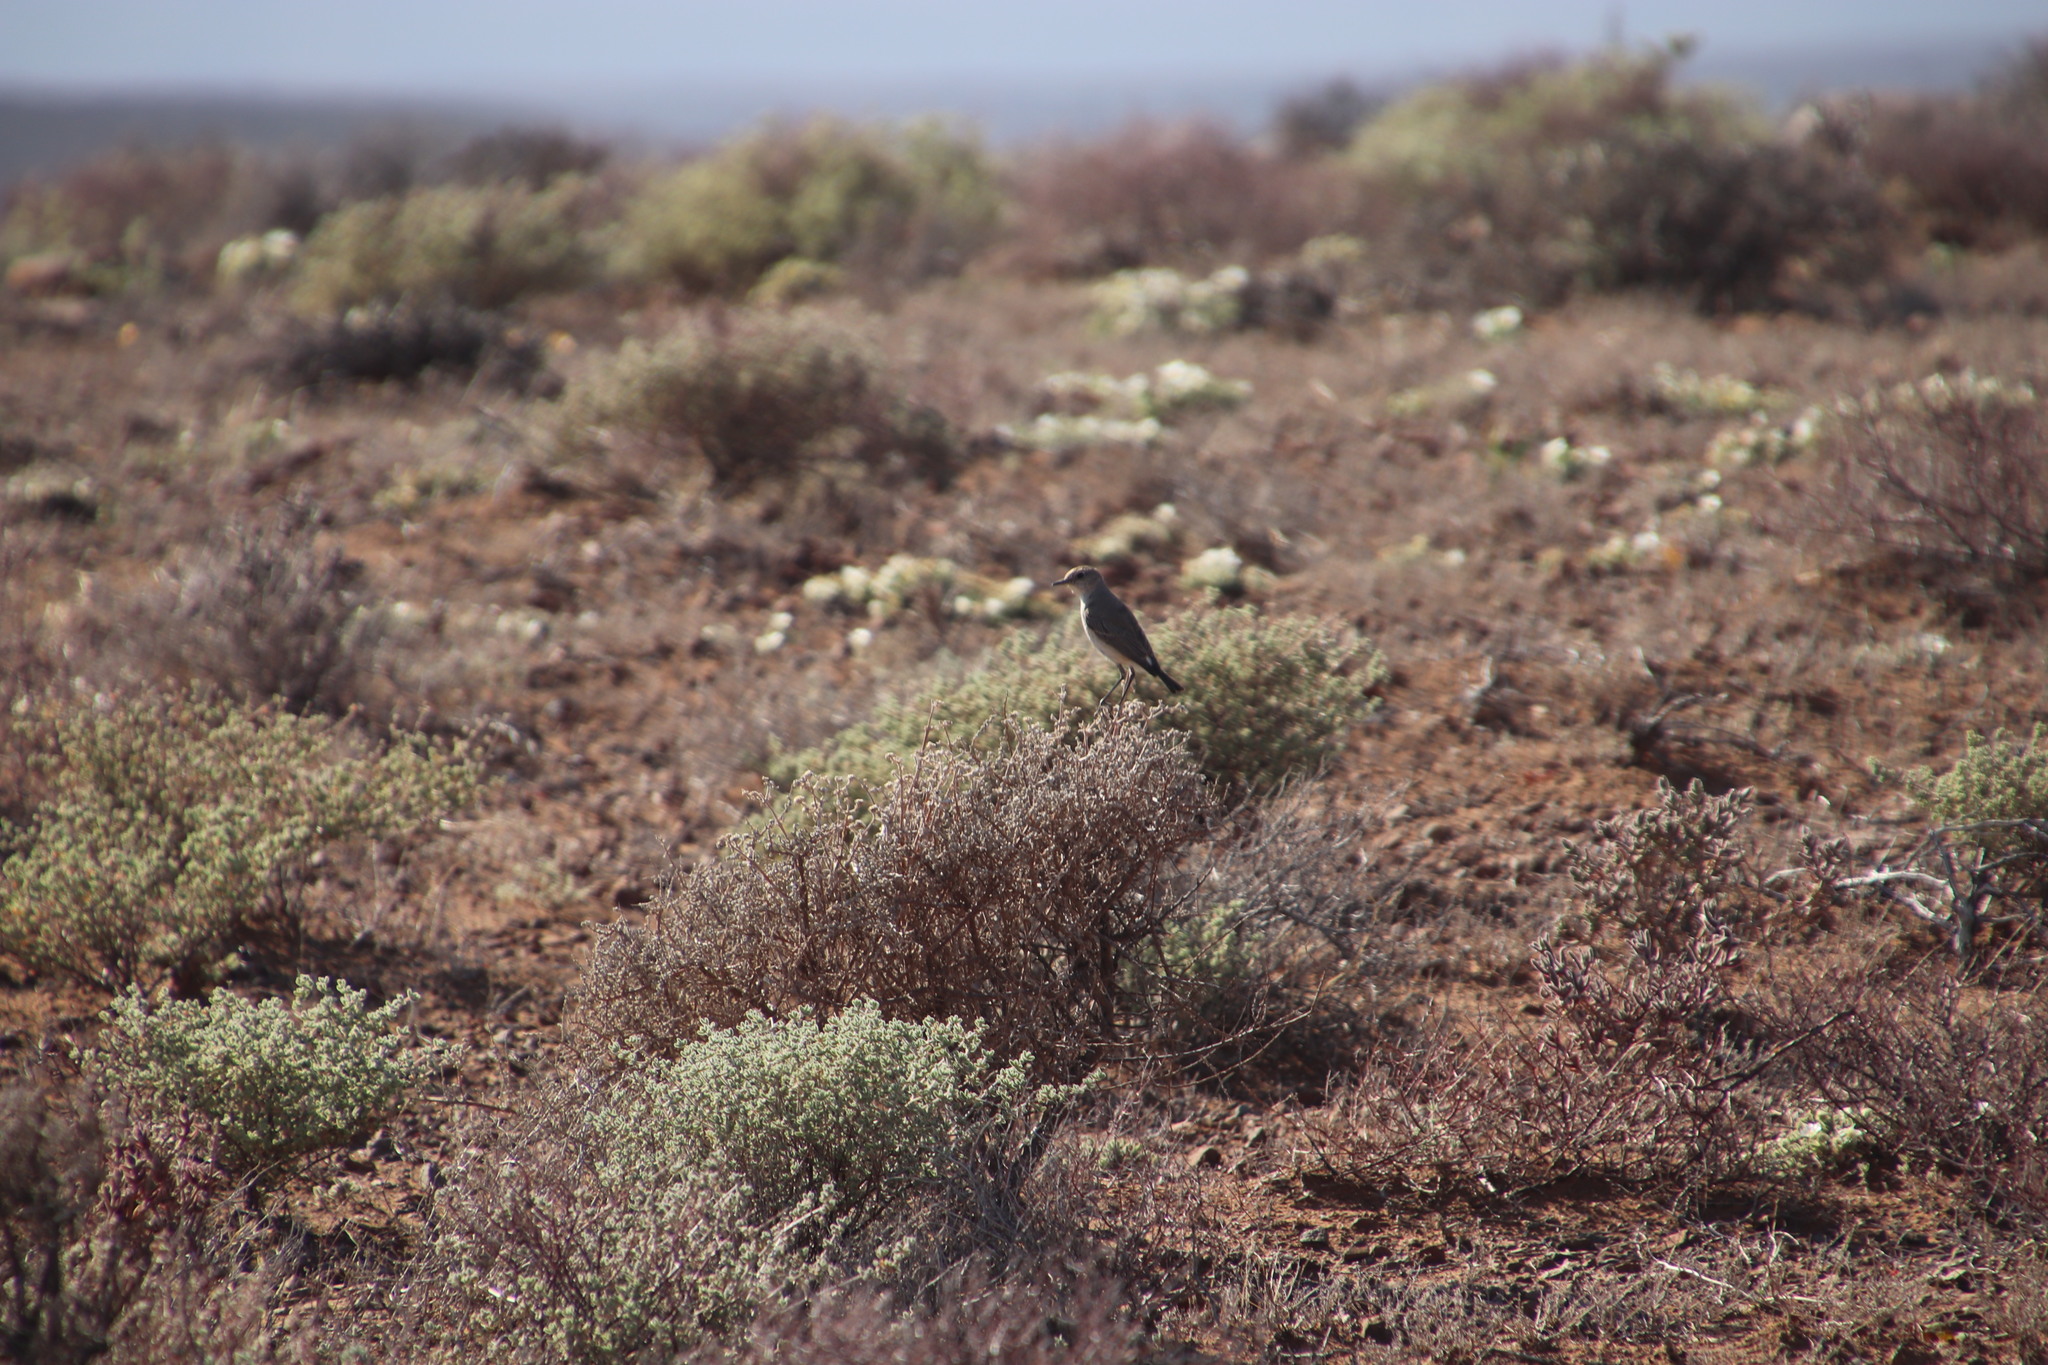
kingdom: Animalia
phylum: Chordata
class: Aves
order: Passeriformes
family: Muscicapidae
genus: Emarginata
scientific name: Emarginata schlegelii
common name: Karoo chat
